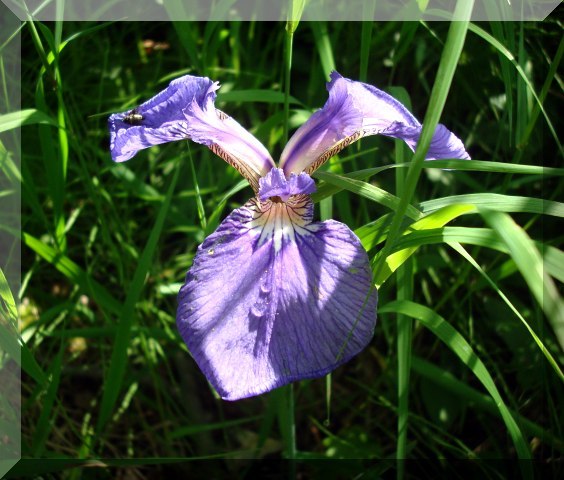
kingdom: Plantae
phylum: Tracheophyta
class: Liliopsida
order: Asparagales
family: Iridaceae
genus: Iris
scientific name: Iris setosa
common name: Arctic blue flag
